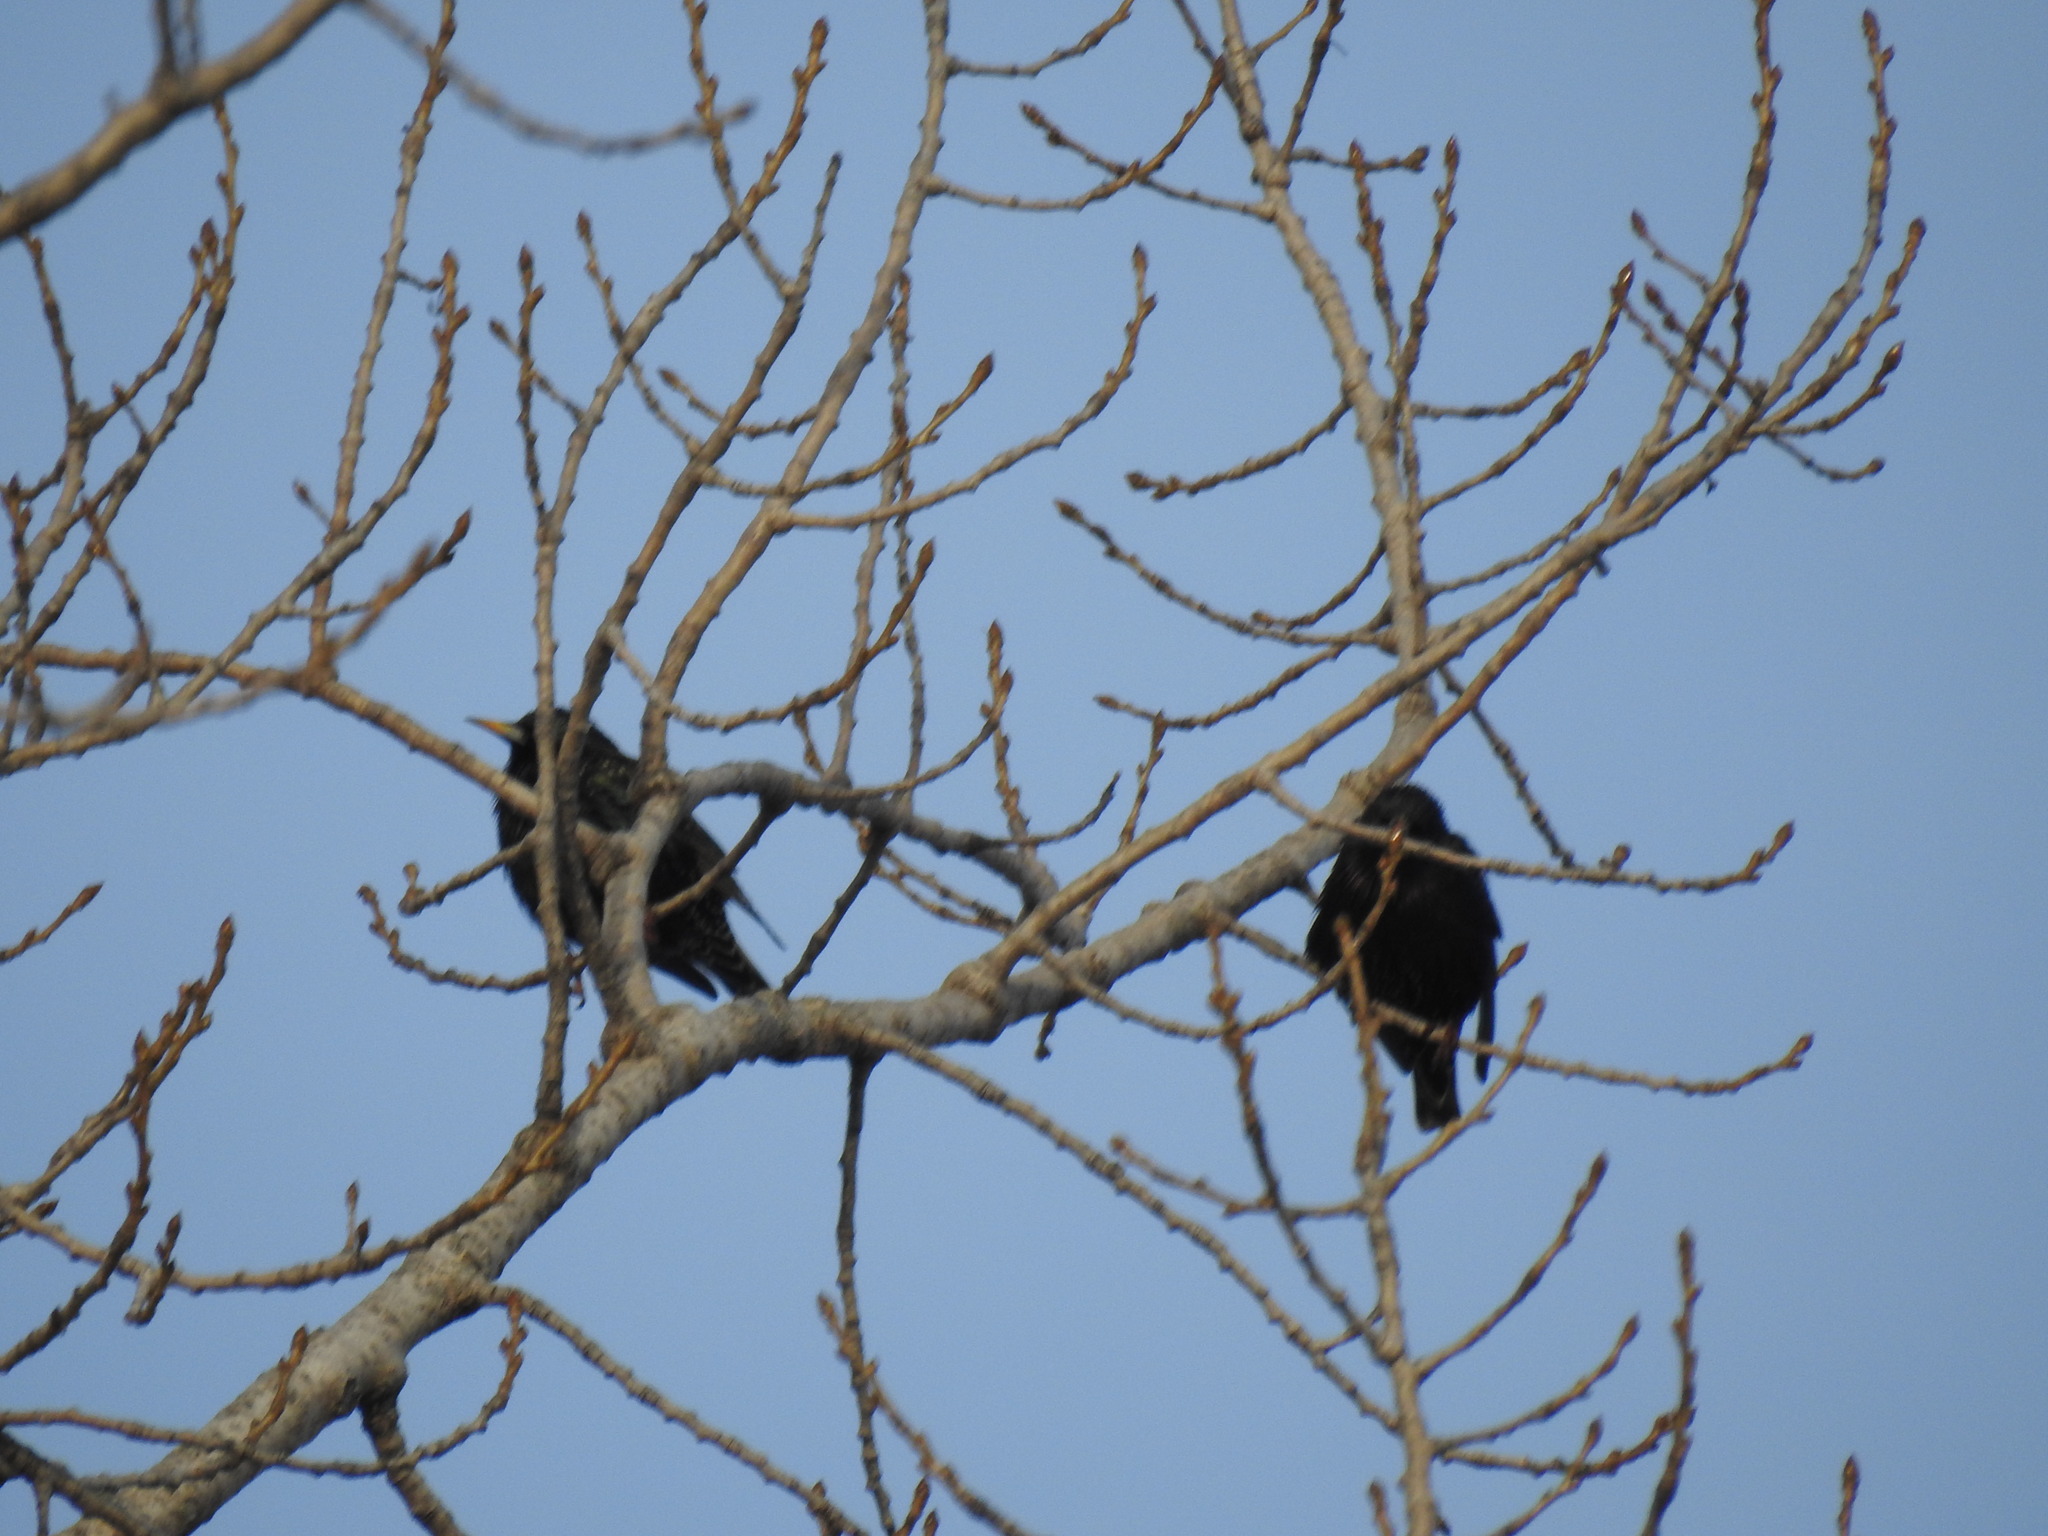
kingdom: Animalia
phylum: Chordata
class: Aves
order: Passeriformes
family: Sturnidae
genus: Sturnus
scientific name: Sturnus vulgaris
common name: Common starling
